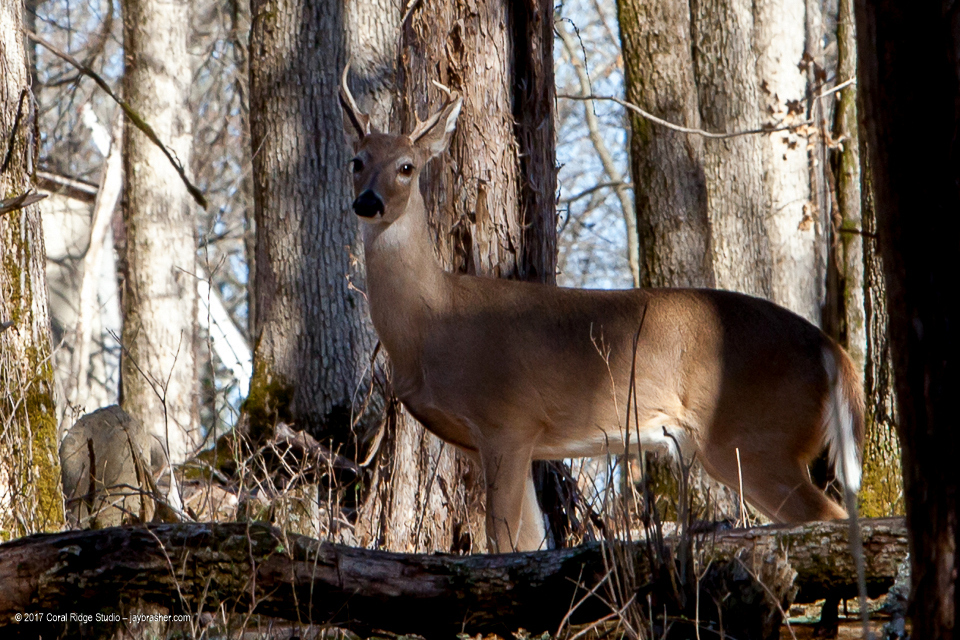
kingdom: Animalia
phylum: Chordata
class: Mammalia
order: Artiodactyla
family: Cervidae
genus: Odocoileus
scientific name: Odocoileus virginianus
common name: White-tailed deer
